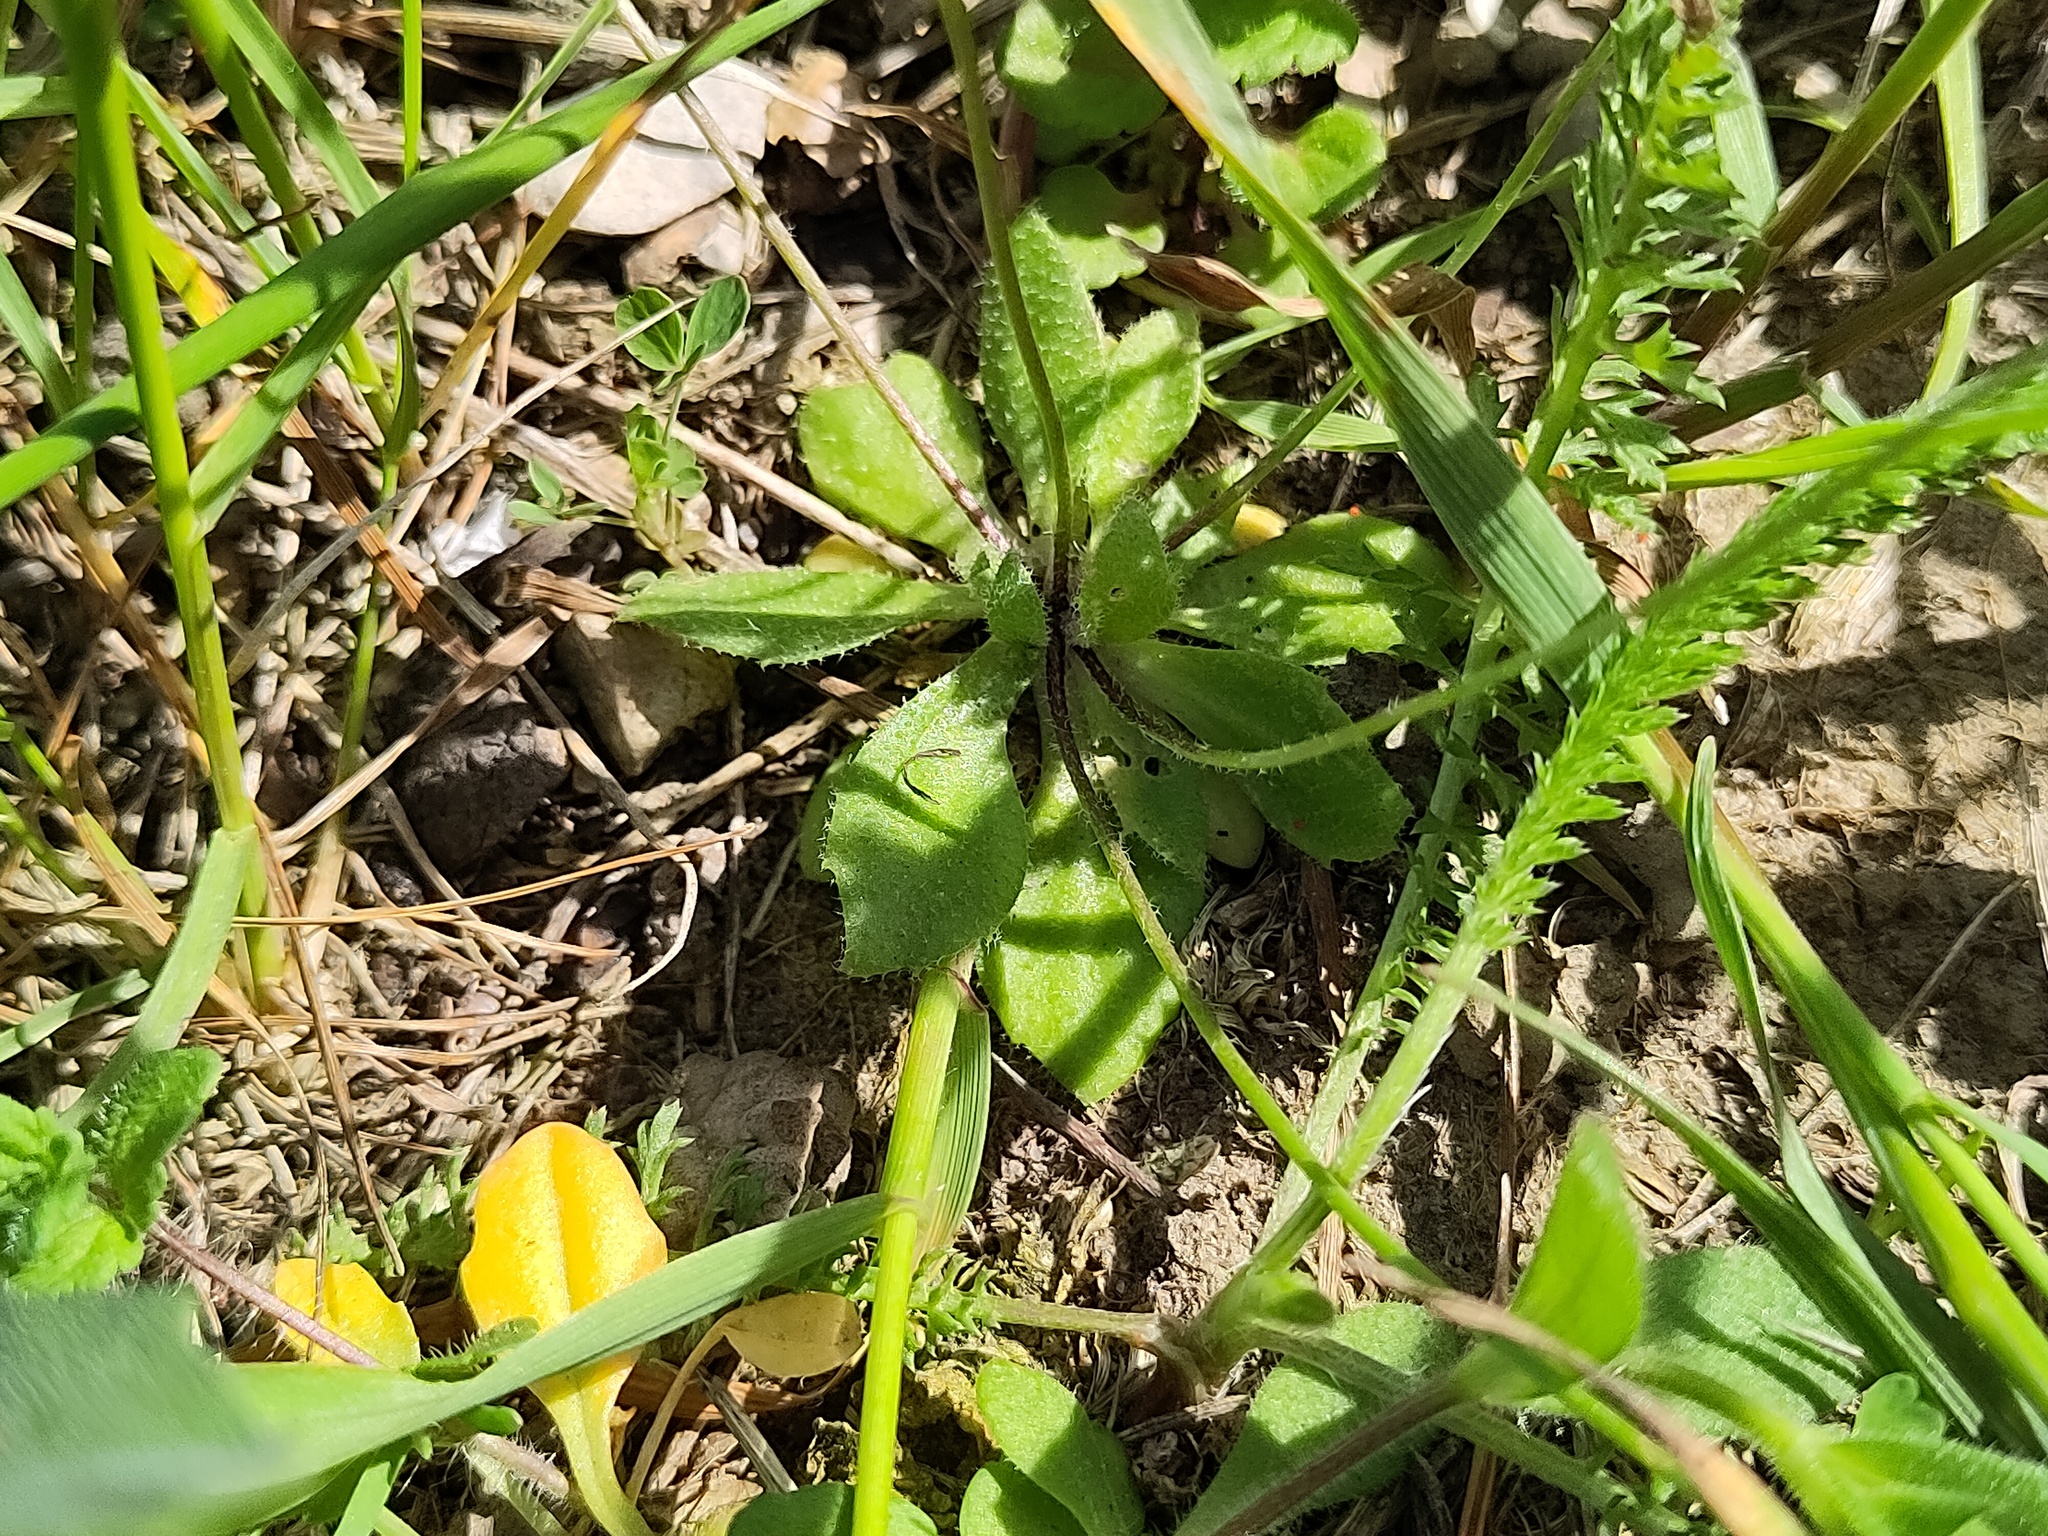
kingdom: Plantae
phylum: Tracheophyta
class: Magnoliopsida
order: Brassicales
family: Brassicaceae
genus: Draba
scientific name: Draba verna
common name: Spring draba
